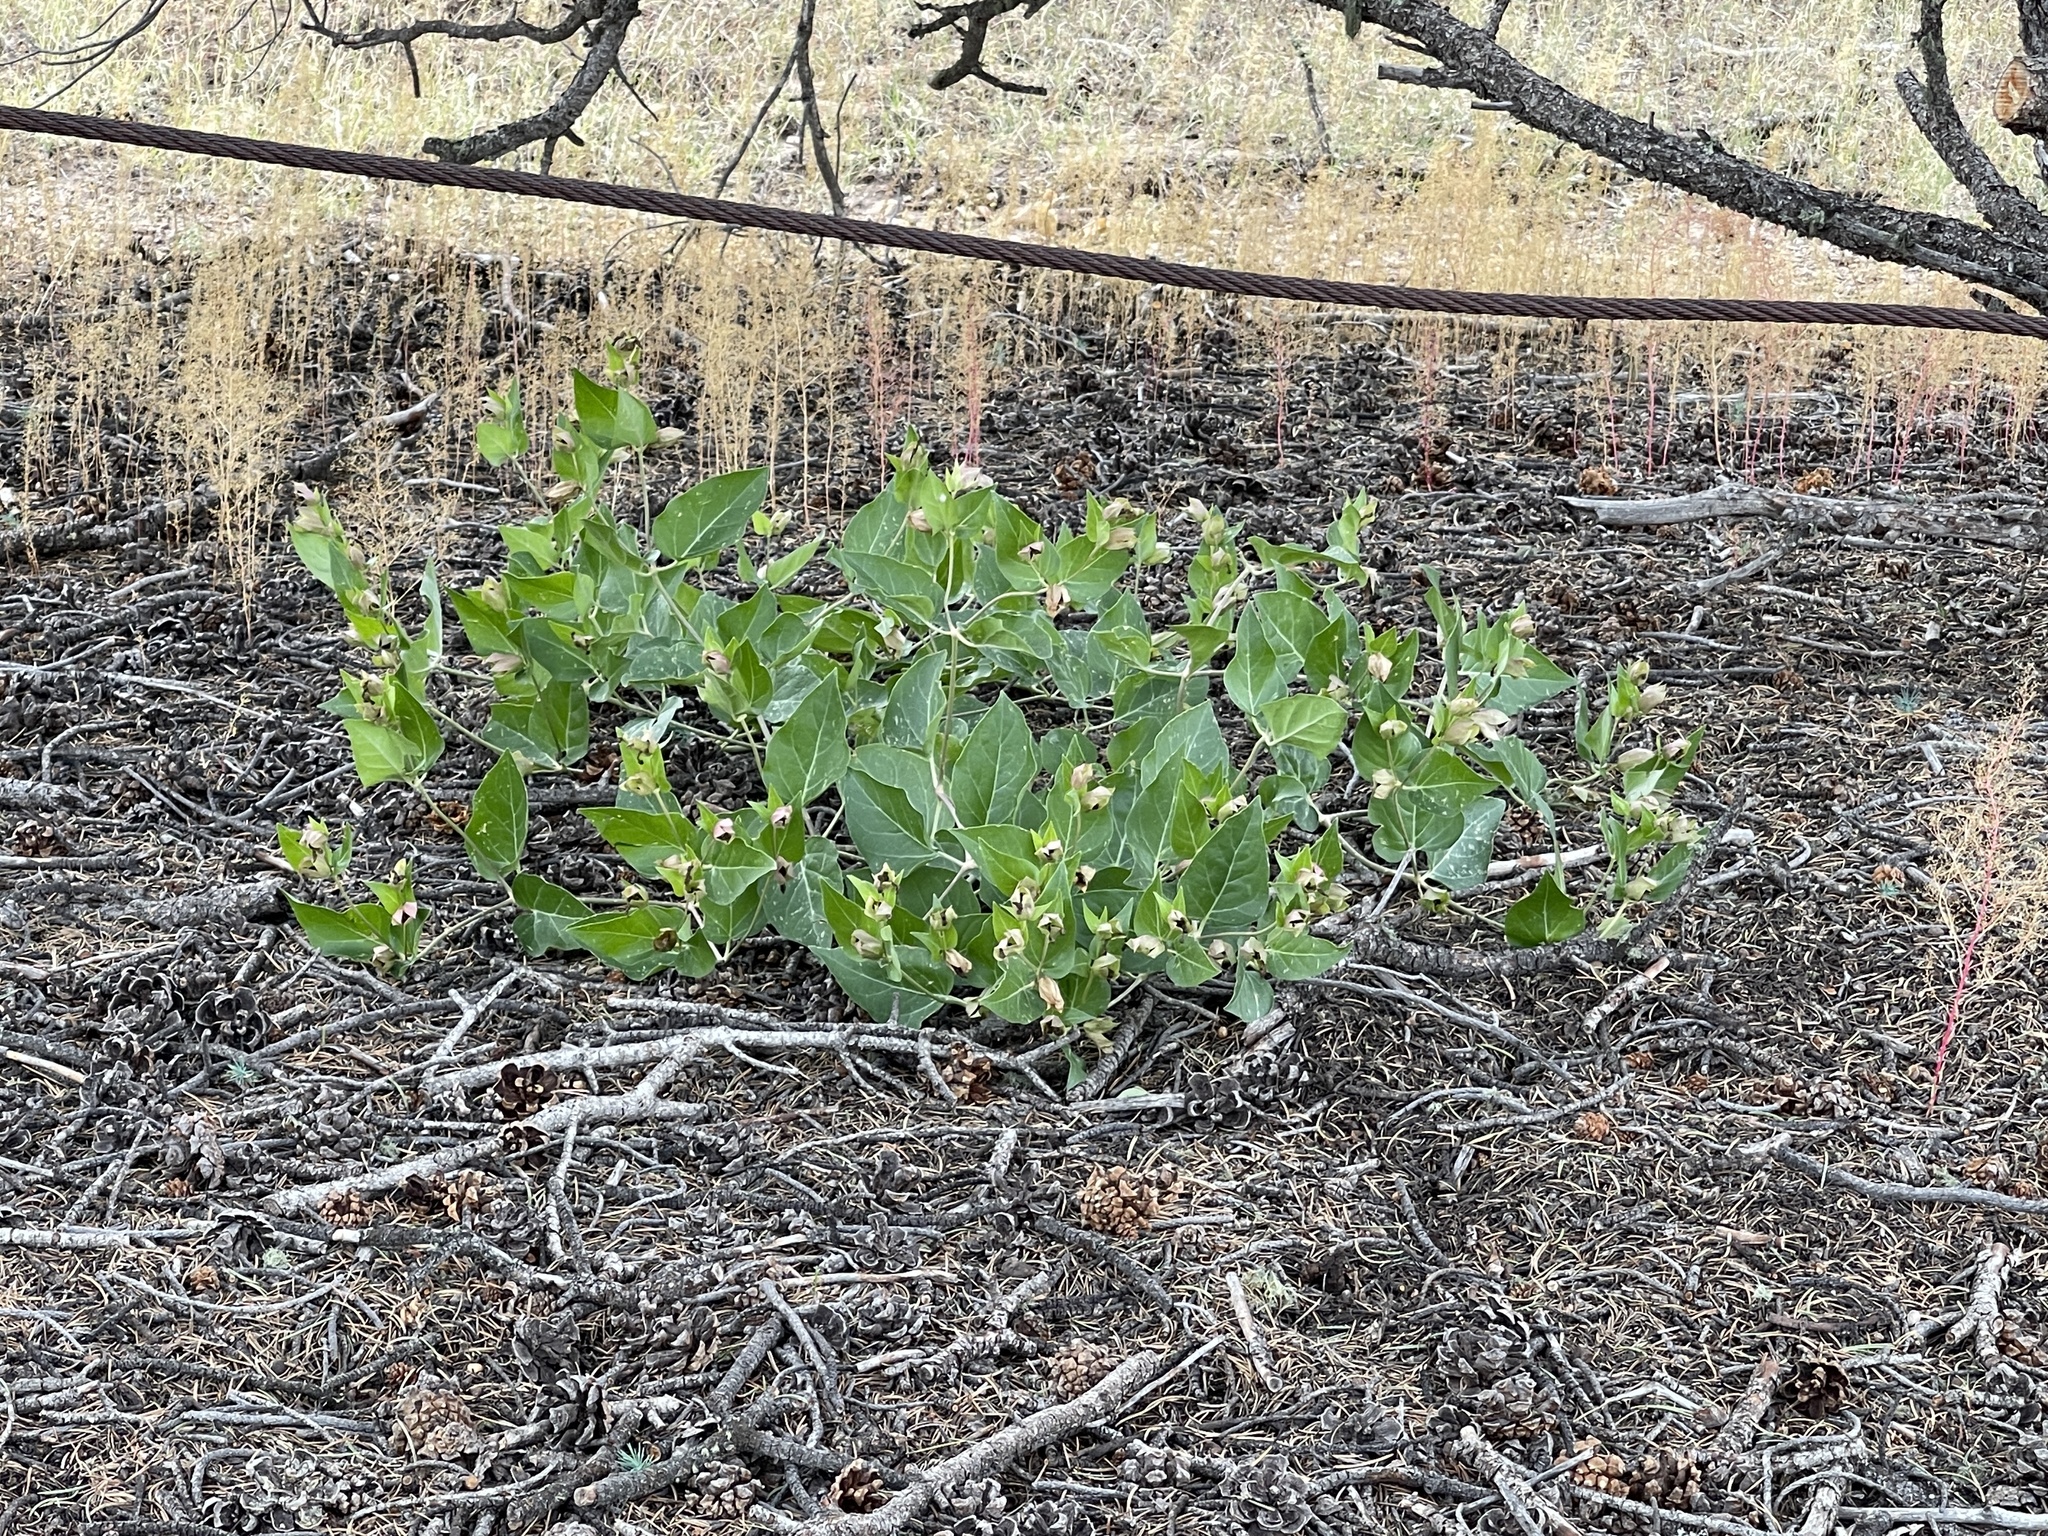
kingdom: Plantae
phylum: Tracheophyta
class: Magnoliopsida
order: Caryophyllales
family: Nyctaginaceae
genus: Mirabilis
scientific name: Mirabilis multiflora
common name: Froebel's four-o'clock
